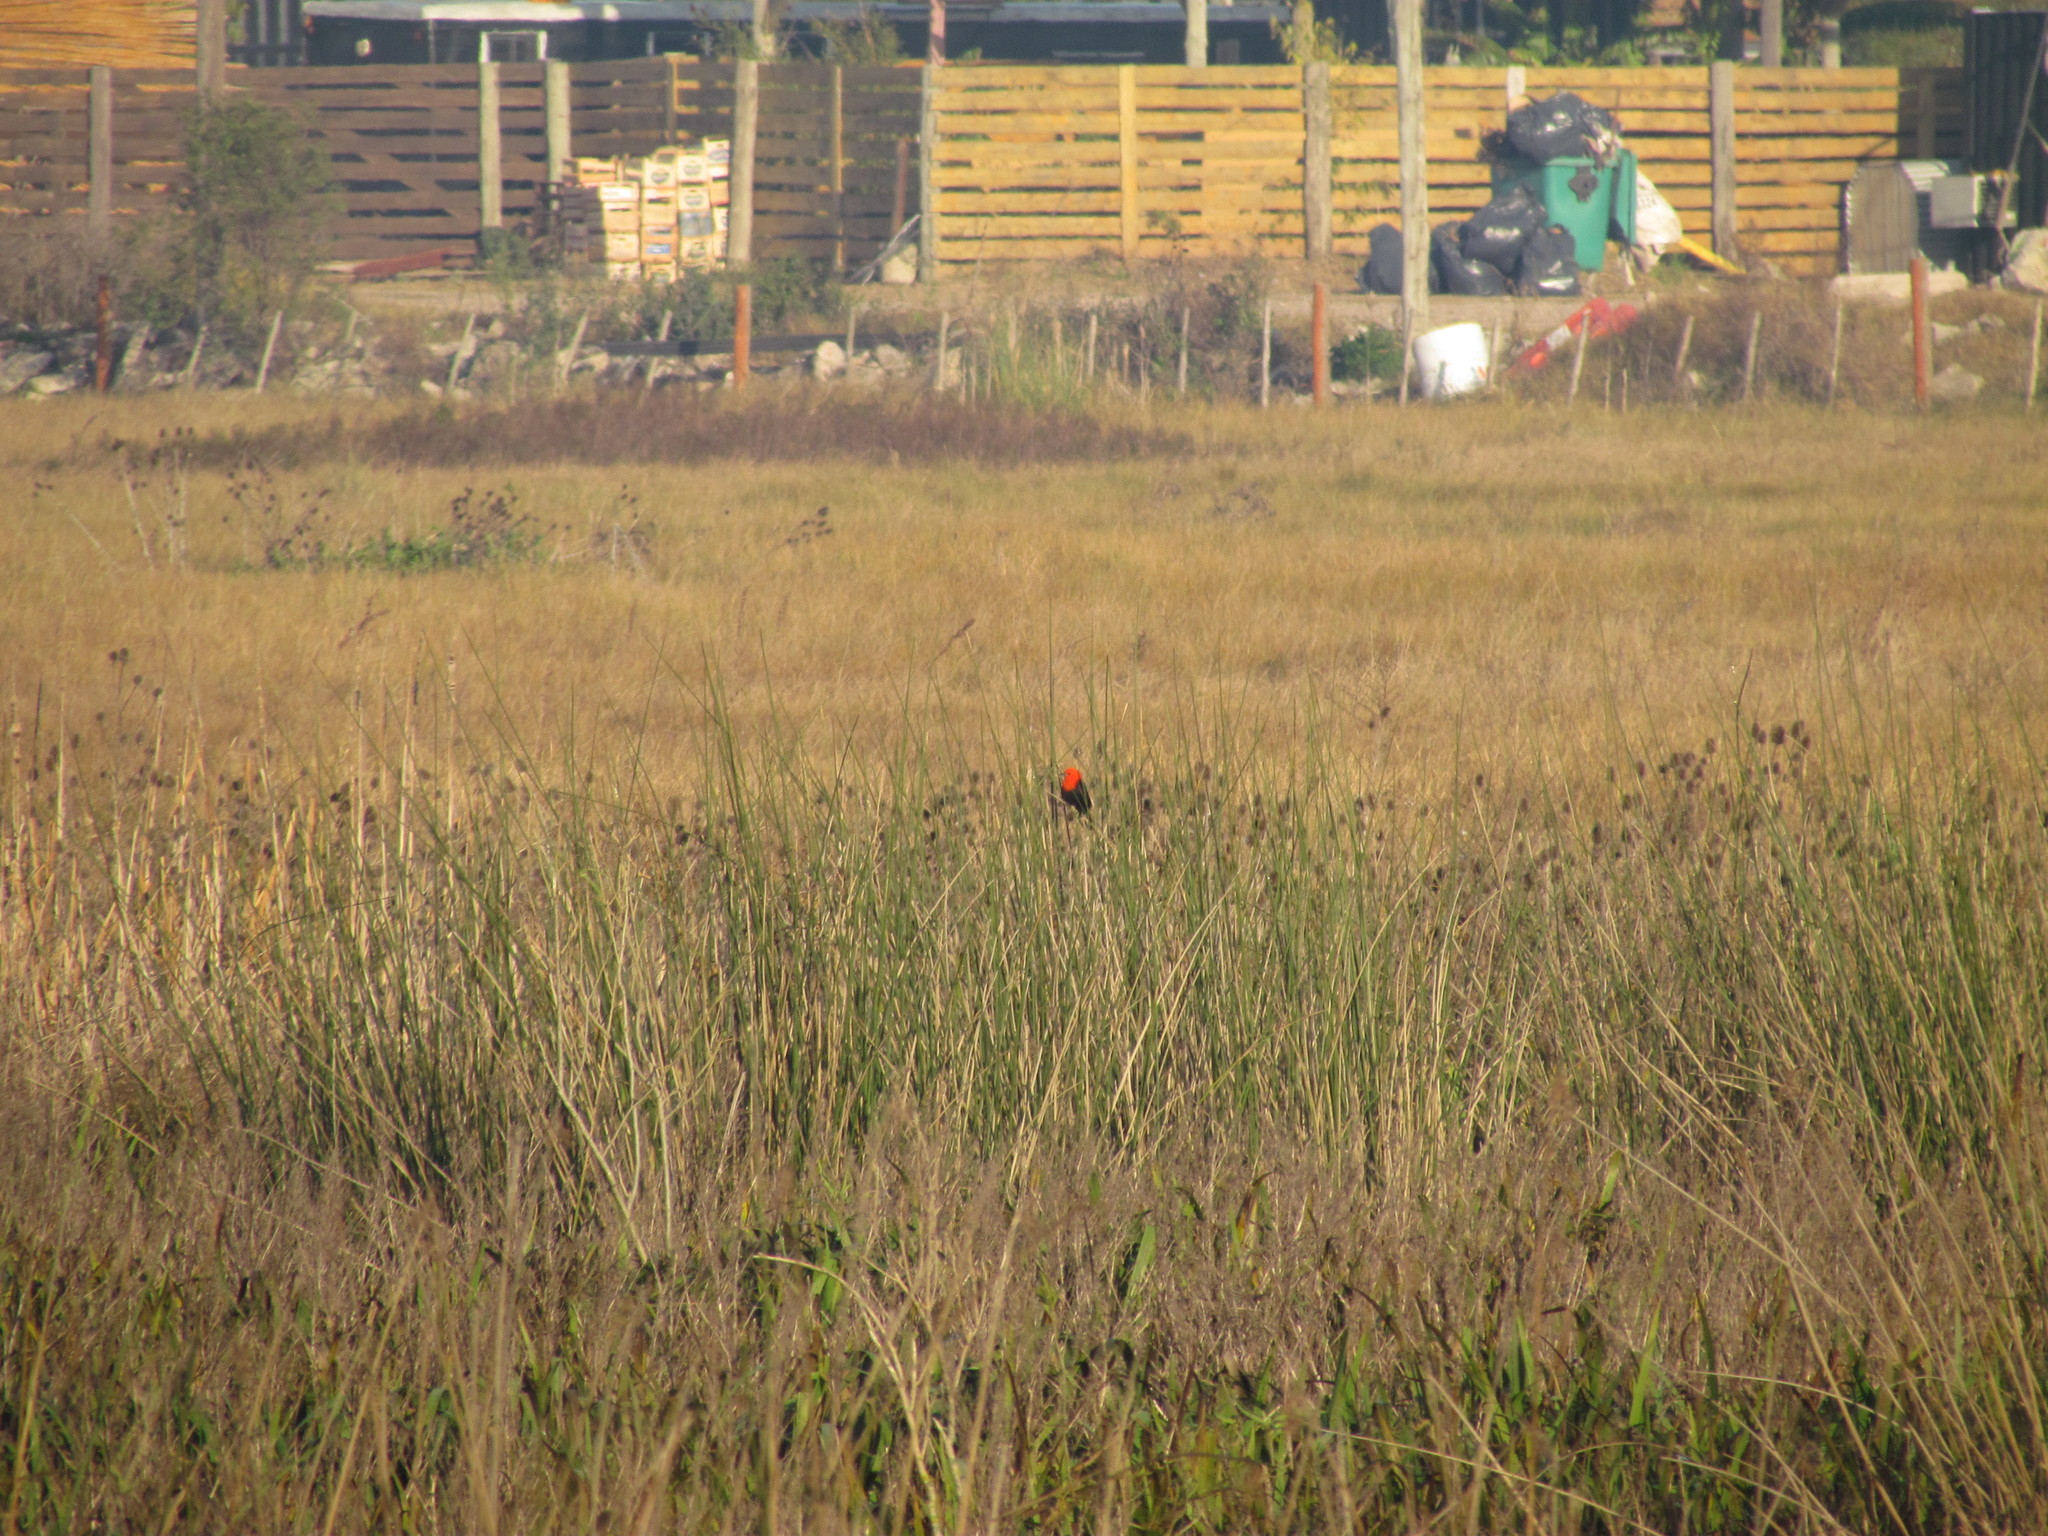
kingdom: Animalia
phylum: Chordata
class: Aves
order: Passeriformes
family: Icteridae
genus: Amblyramphus
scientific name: Amblyramphus holosericeus
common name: Scarlet-headed blackbird
